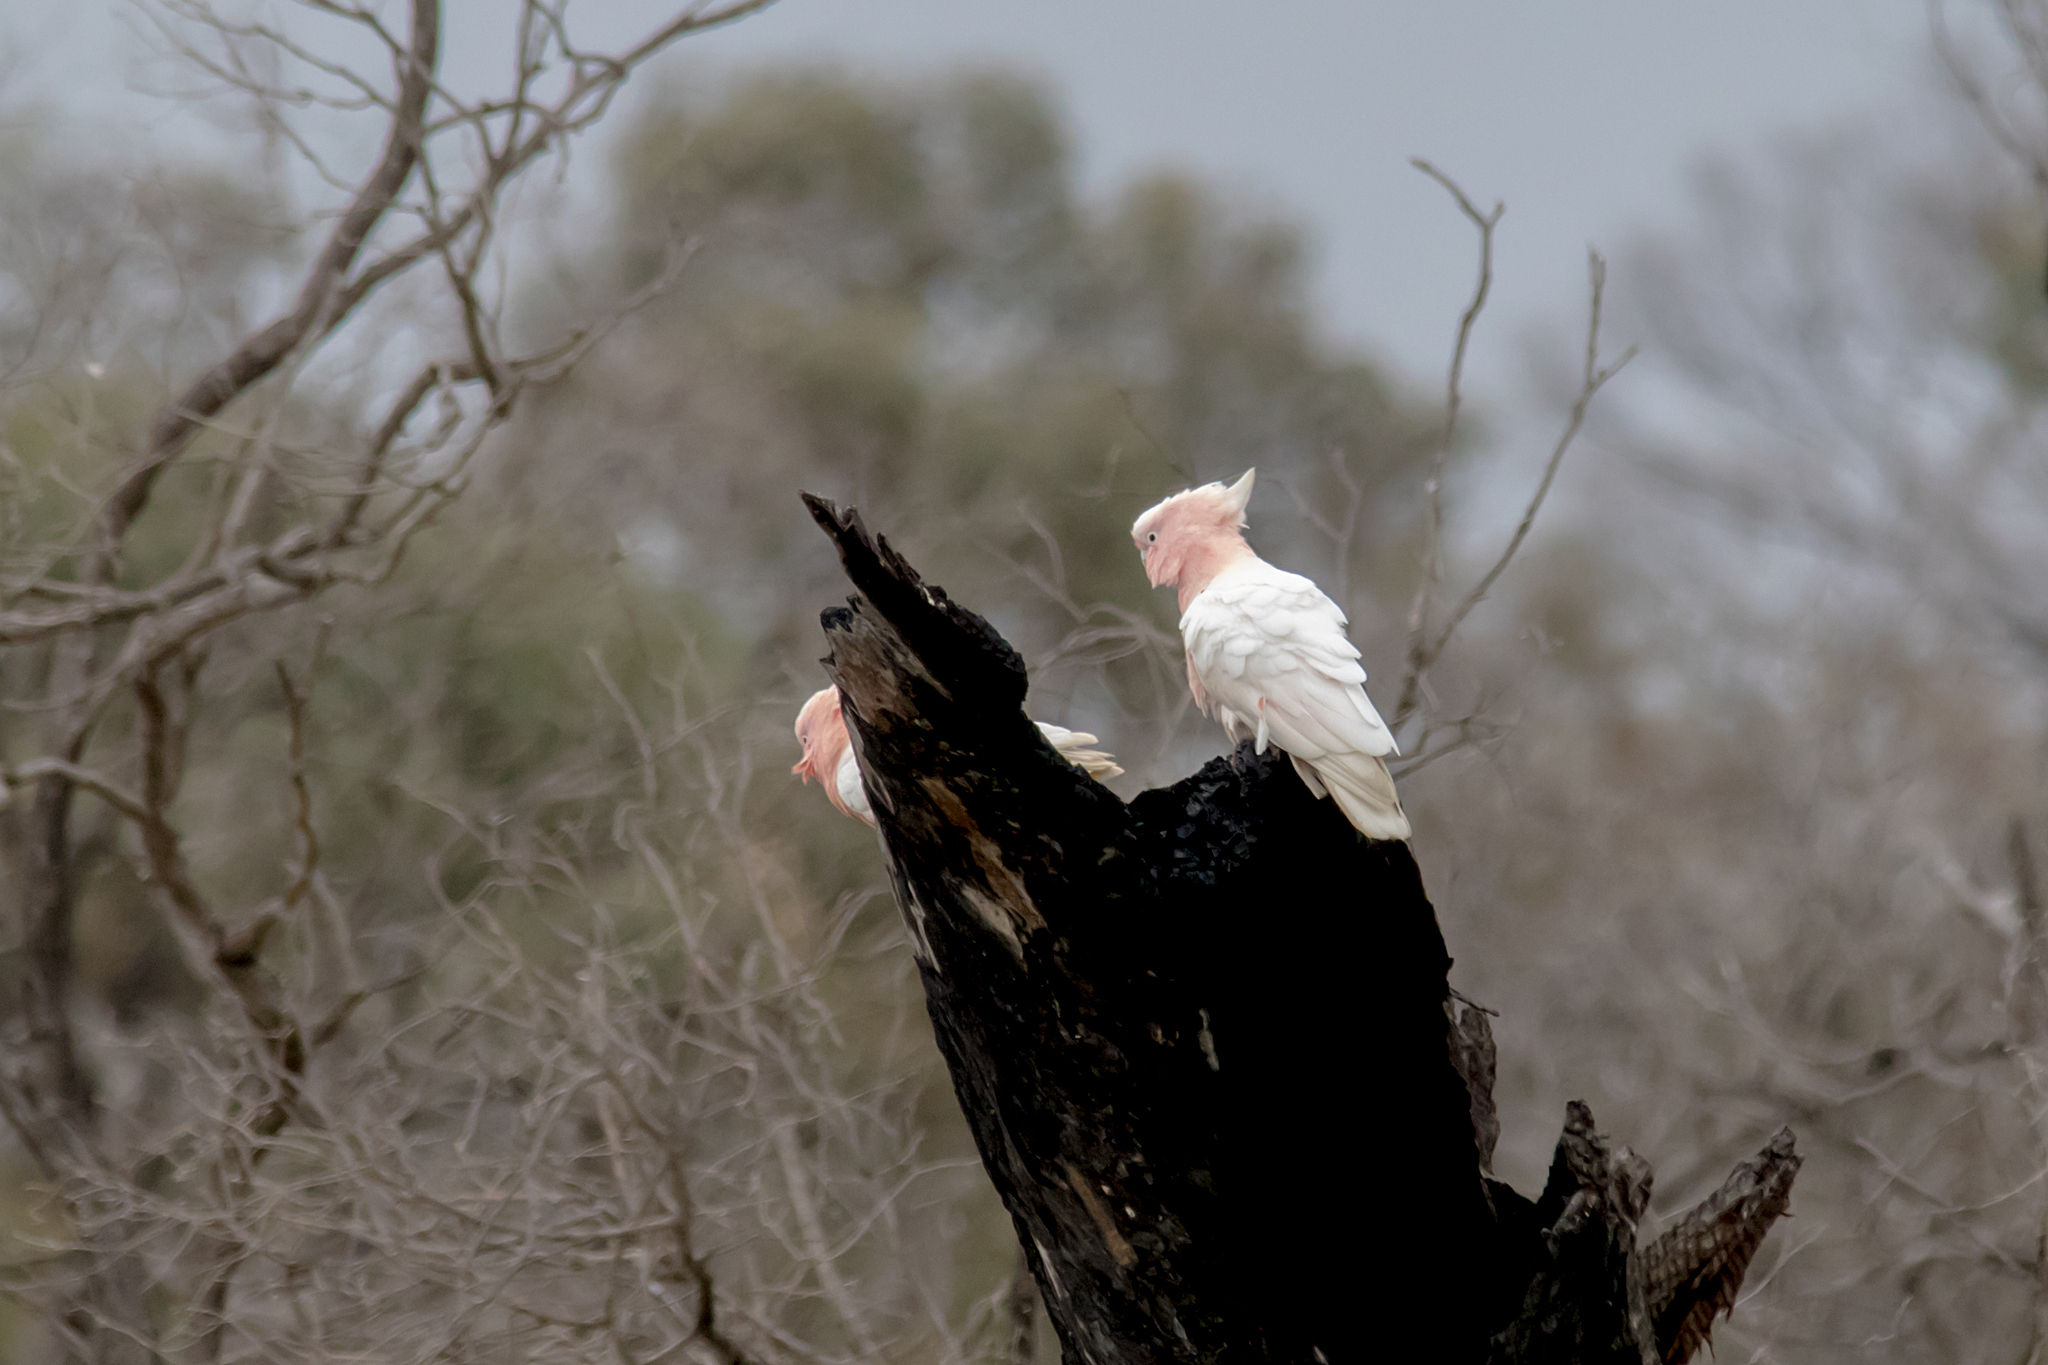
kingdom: Animalia
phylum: Chordata
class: Aves
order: Psittaciformes
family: Psittacidae
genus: Cacatua
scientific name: Cacatua leadbeateri
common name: Major mitchell's cockatoo
